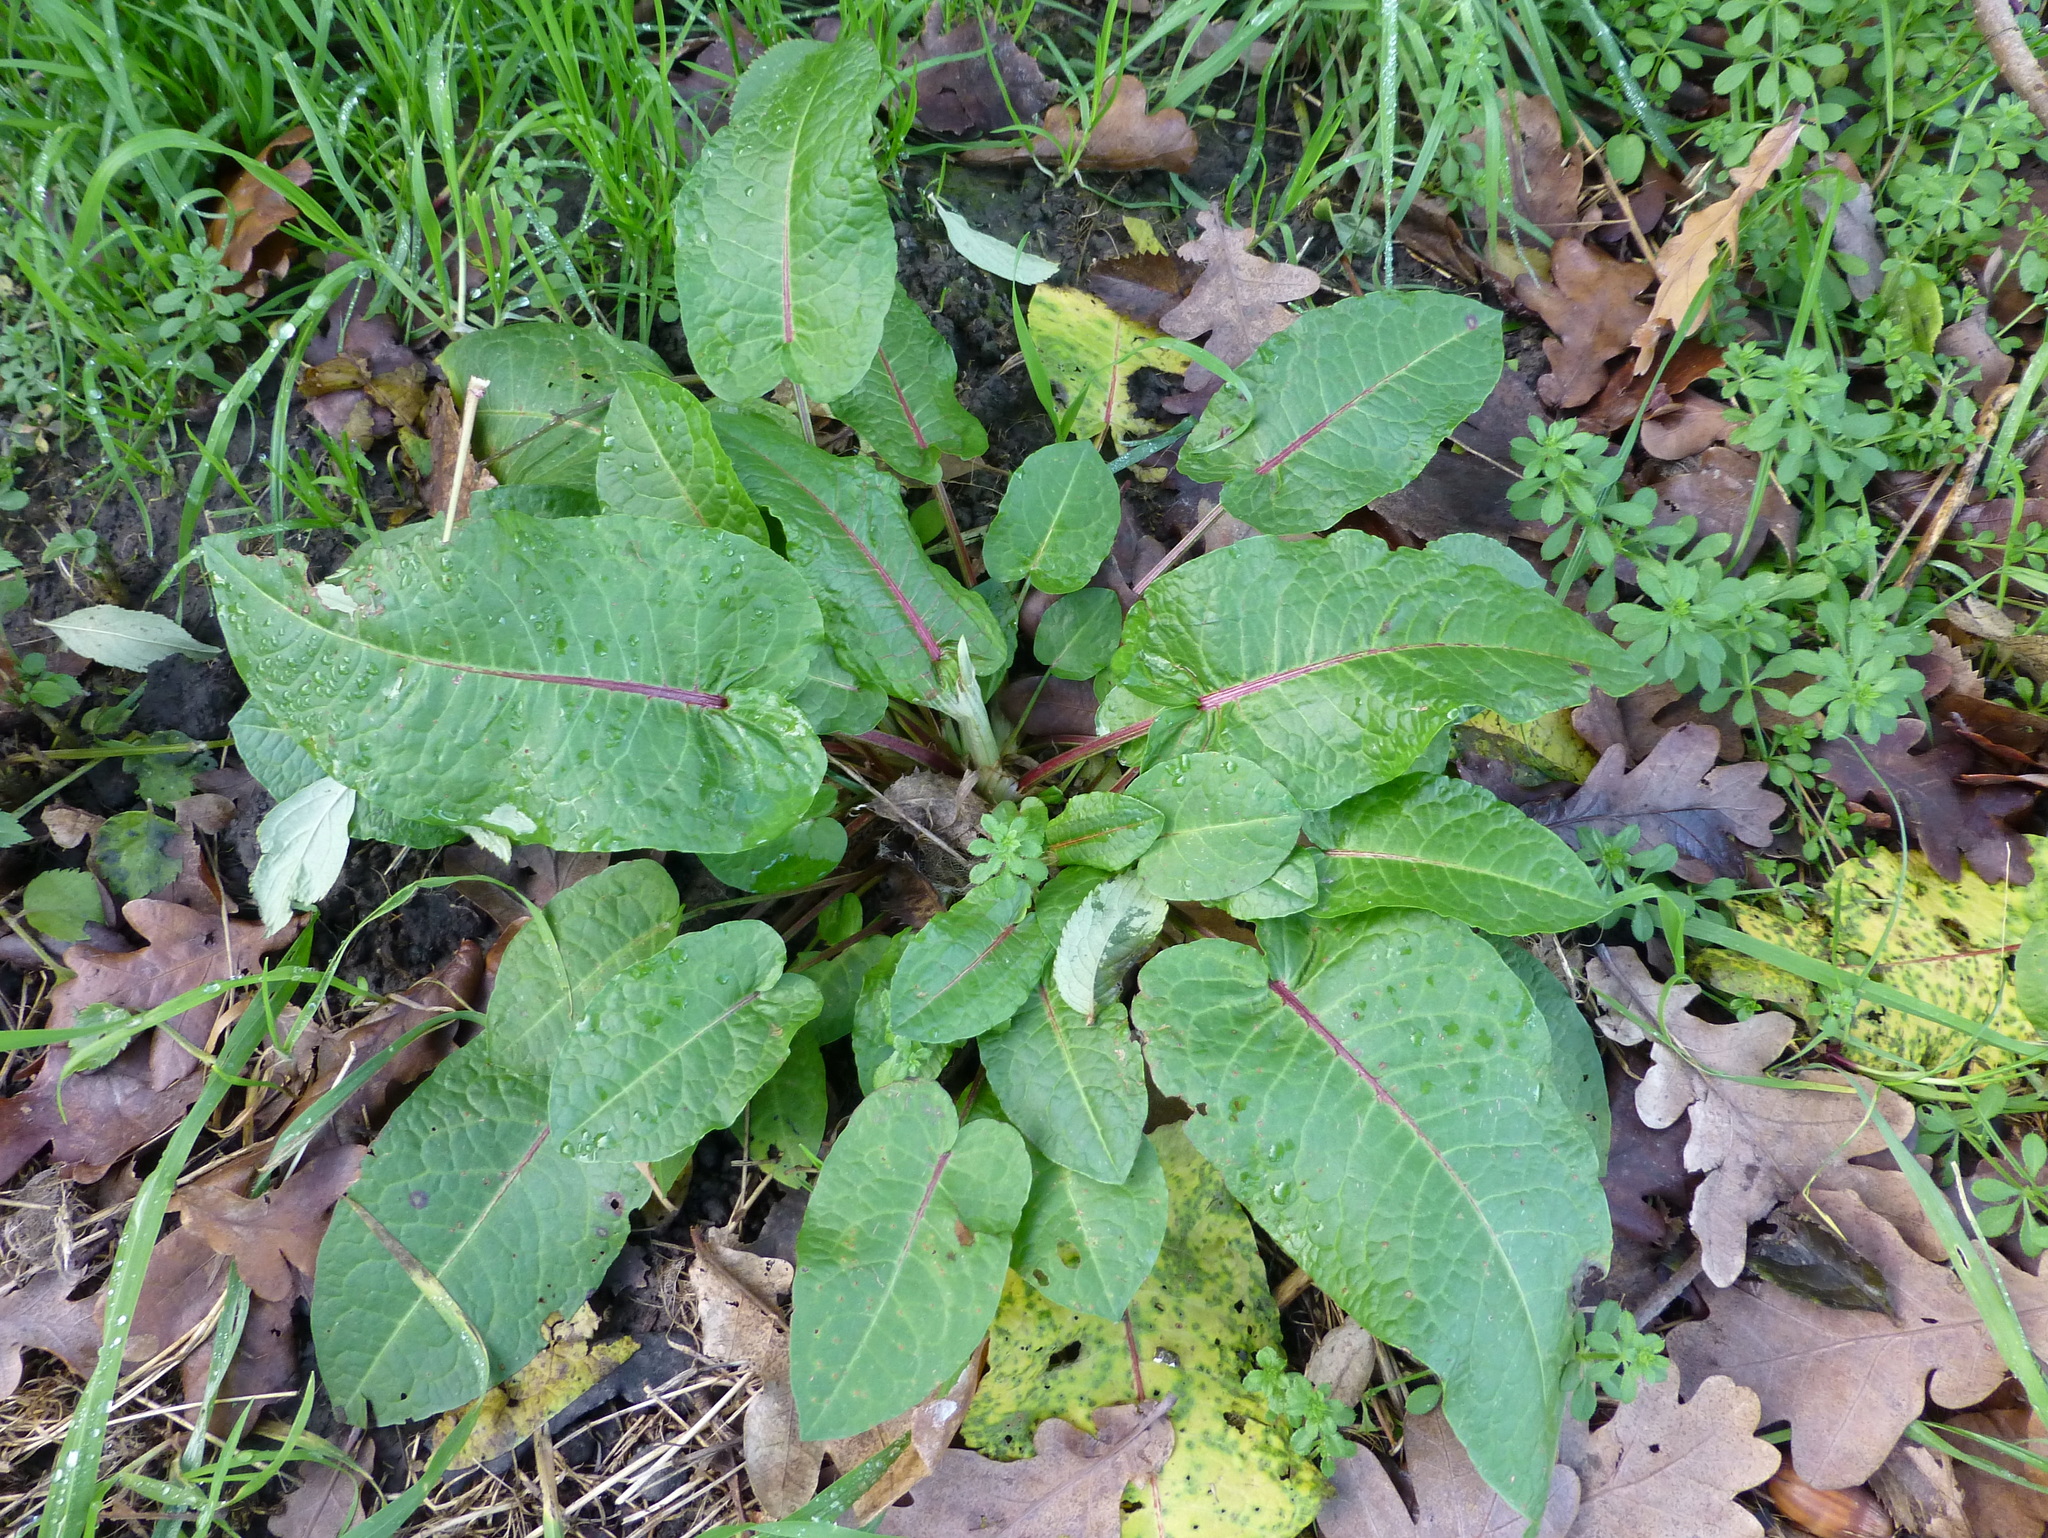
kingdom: Plantae
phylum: Tracheophyta
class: Magnoliopsida
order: Caryophyllales
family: Polygonaceae
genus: Rumex
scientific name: Rumex obtusifolius
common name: Bitter dock
